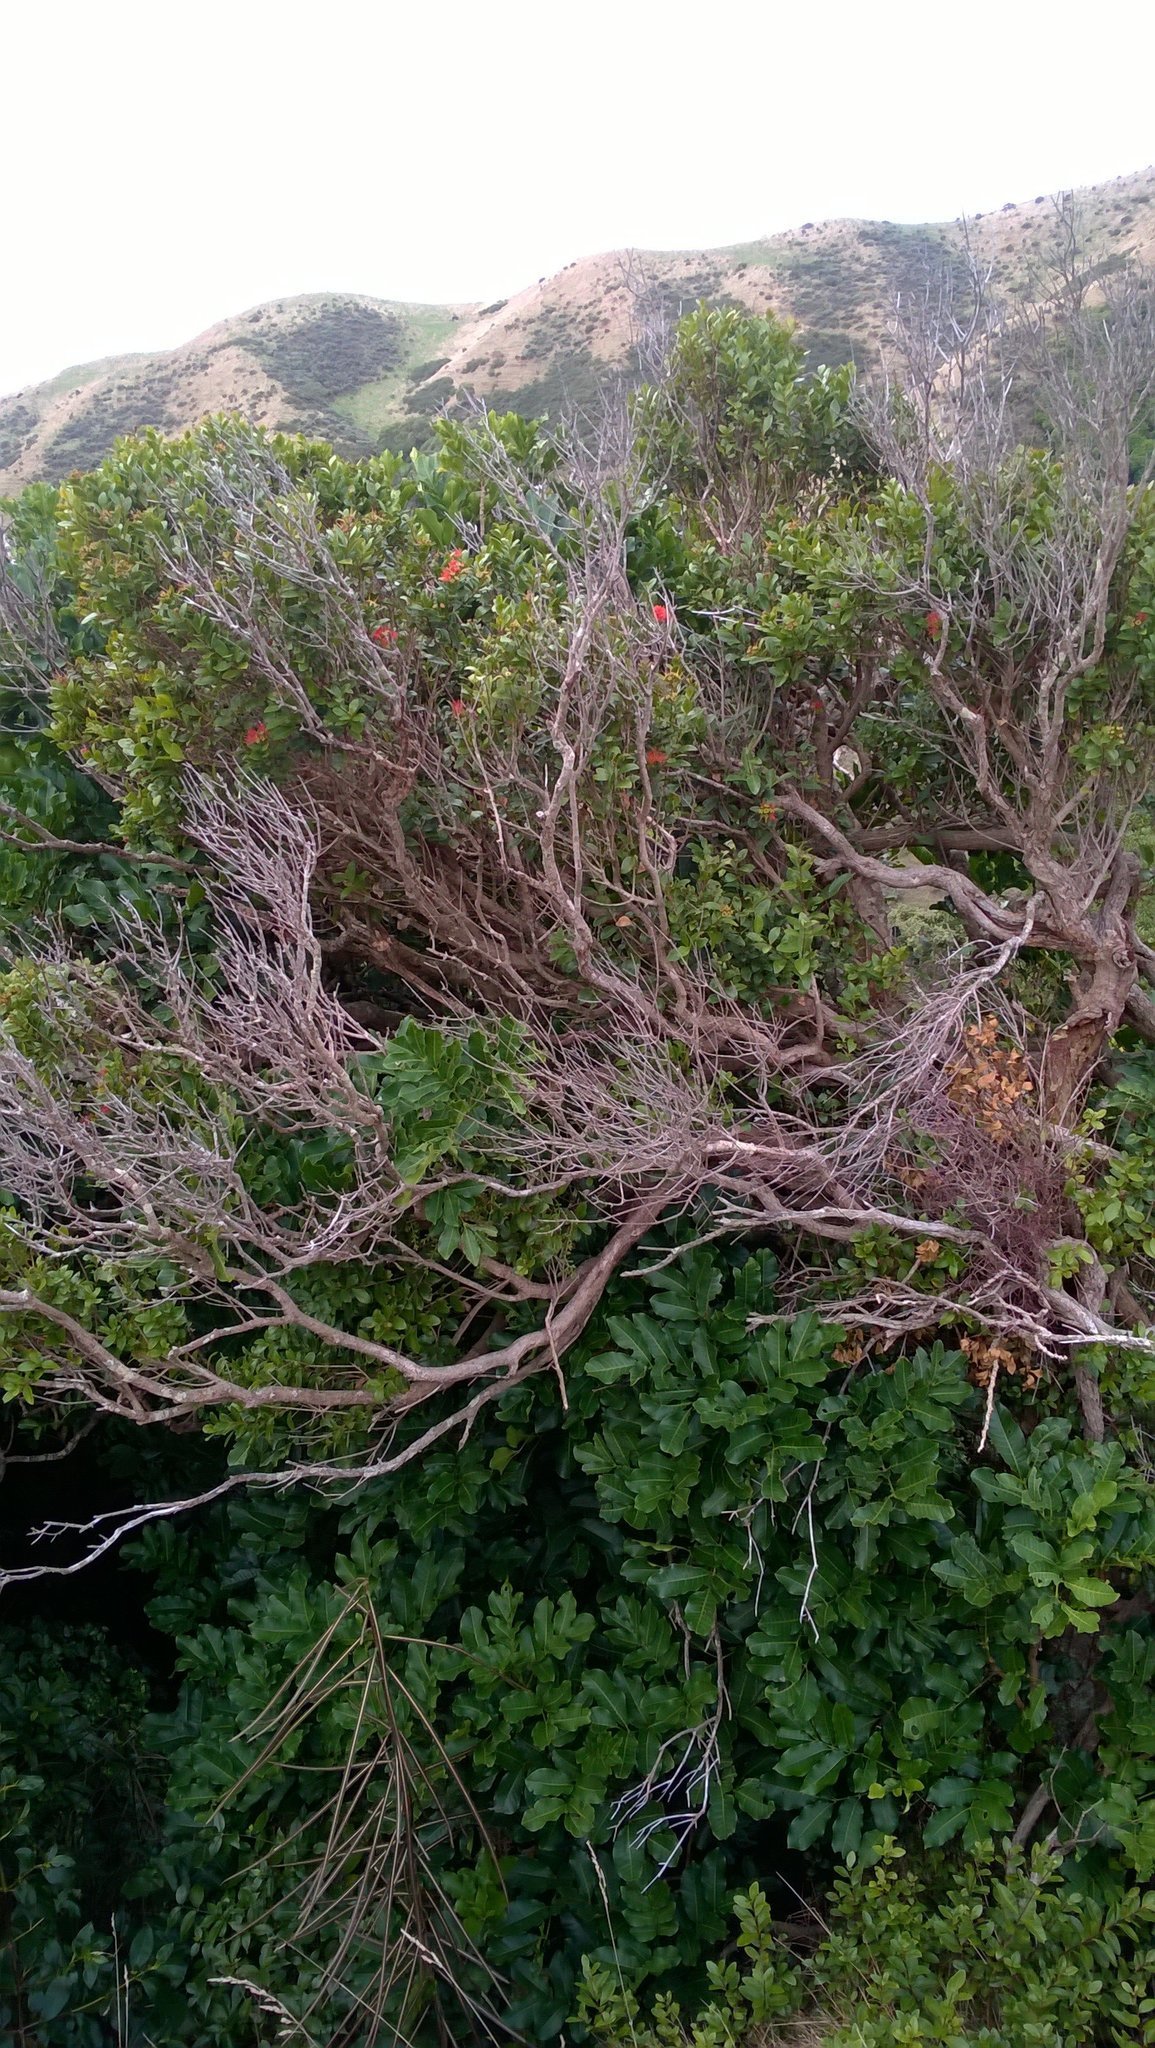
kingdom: Plantae
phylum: Tracheophyta
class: Magnoliopsida
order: Myrtales
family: Myrtaceae
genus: Metrosideros
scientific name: Metrosideros fulgens
